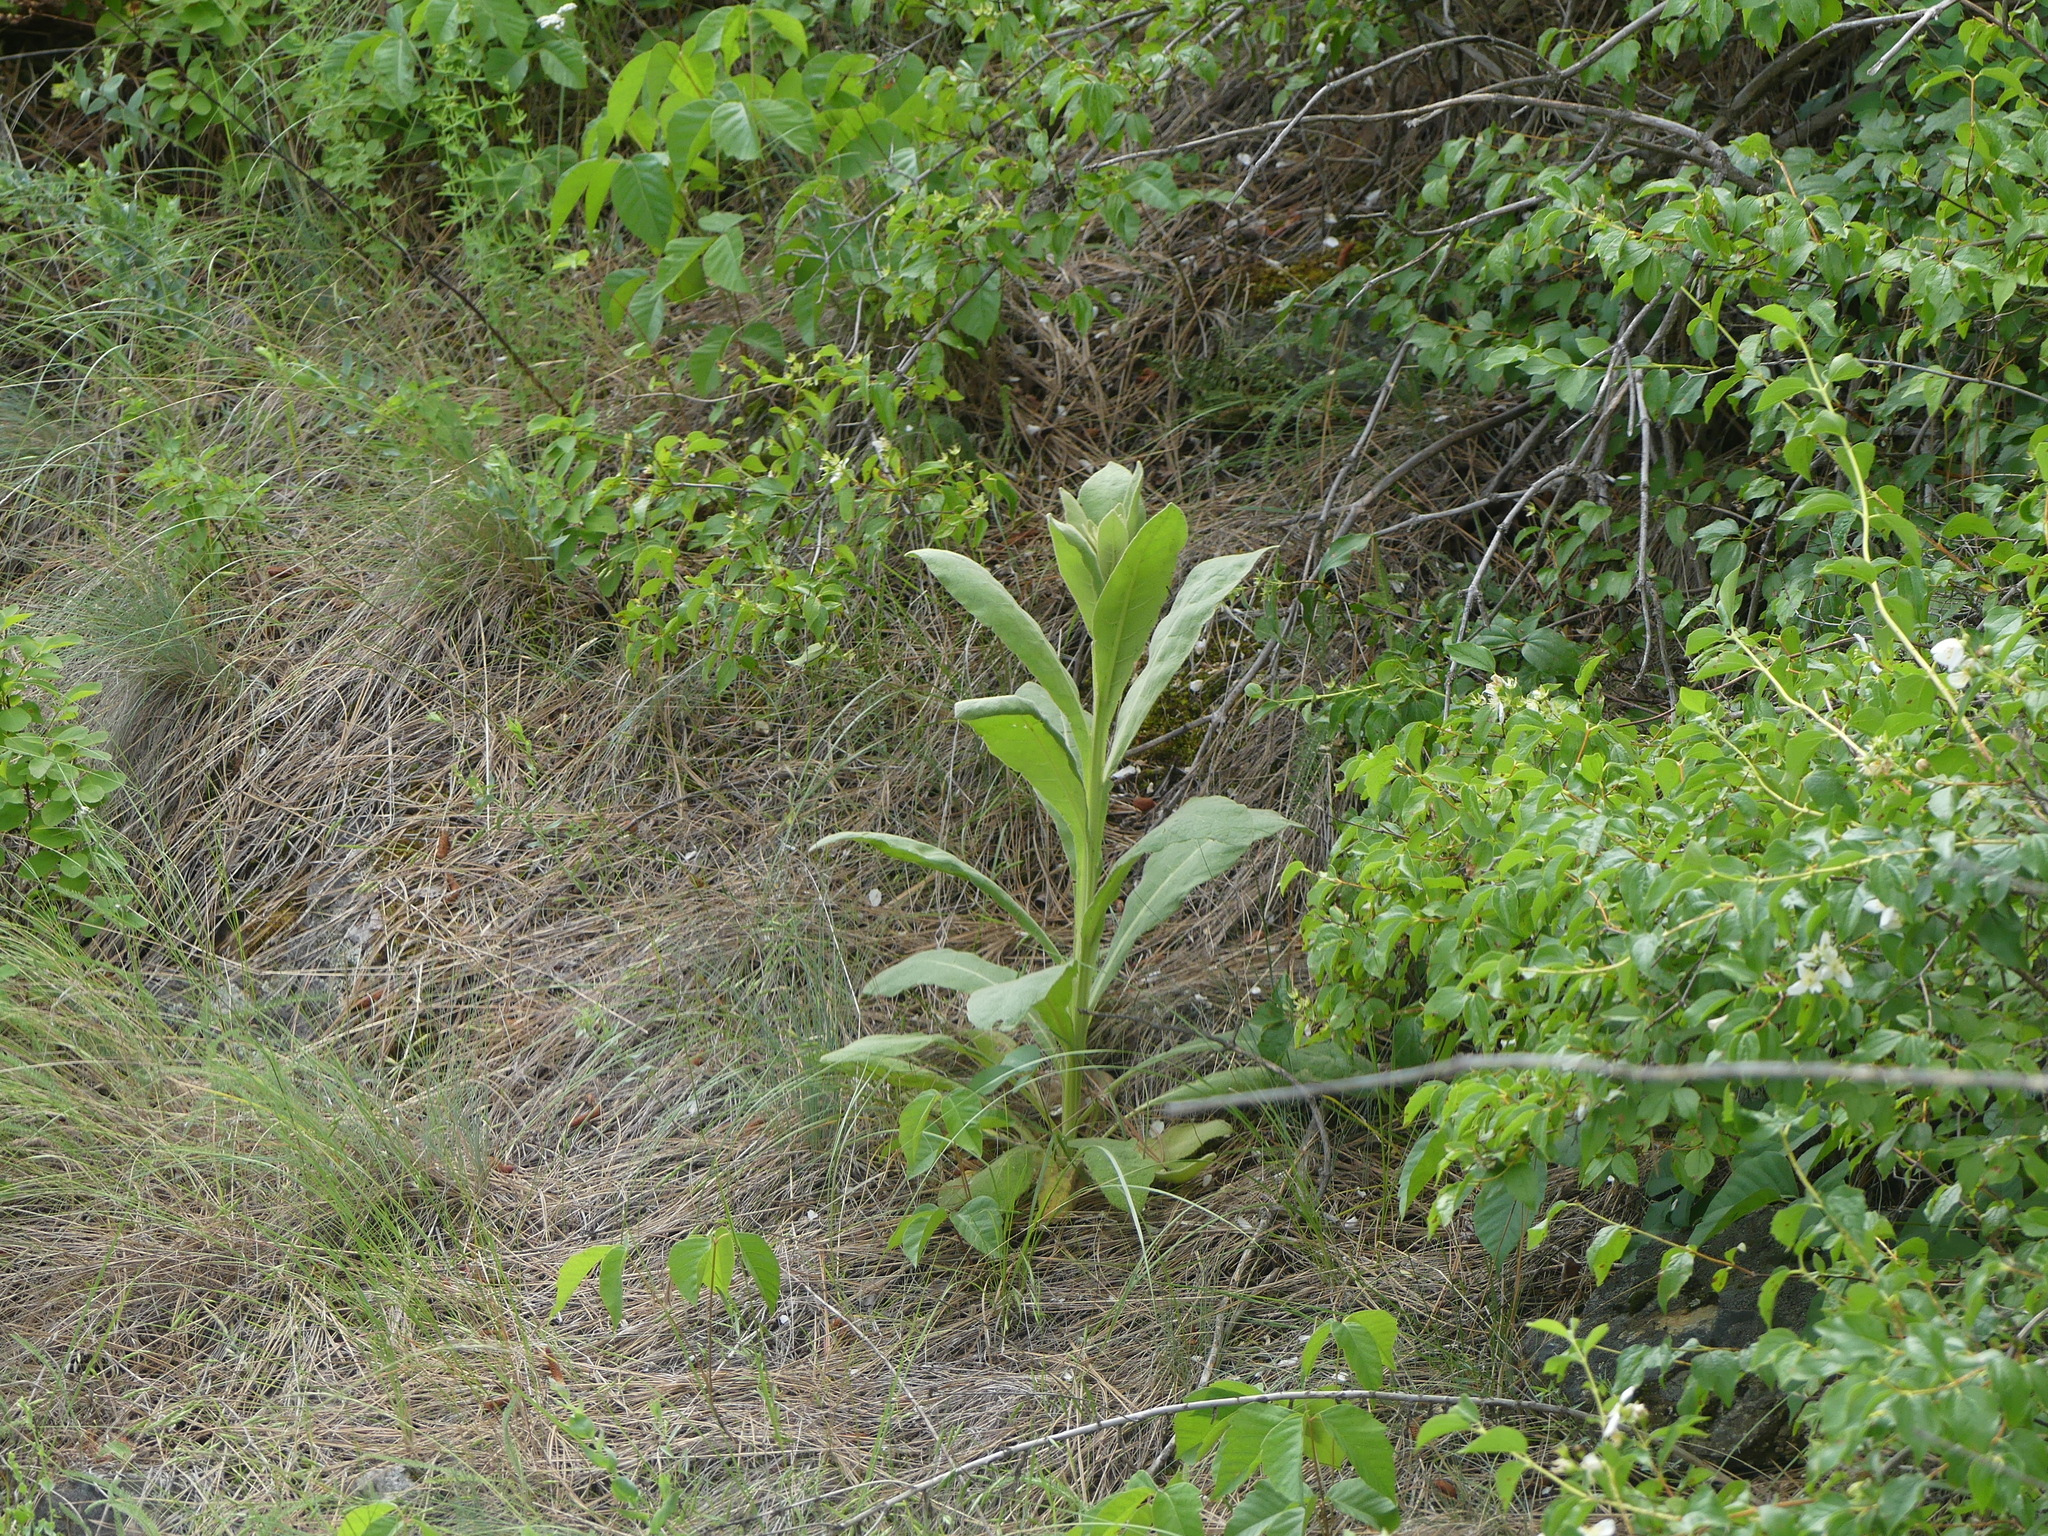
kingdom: Plantae
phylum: Tracheophyta
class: Magnoliopsida
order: Lamiales
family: Scrophulariaceae
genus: Verbascum
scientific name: Verbascum thapsus
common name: Common mullein
